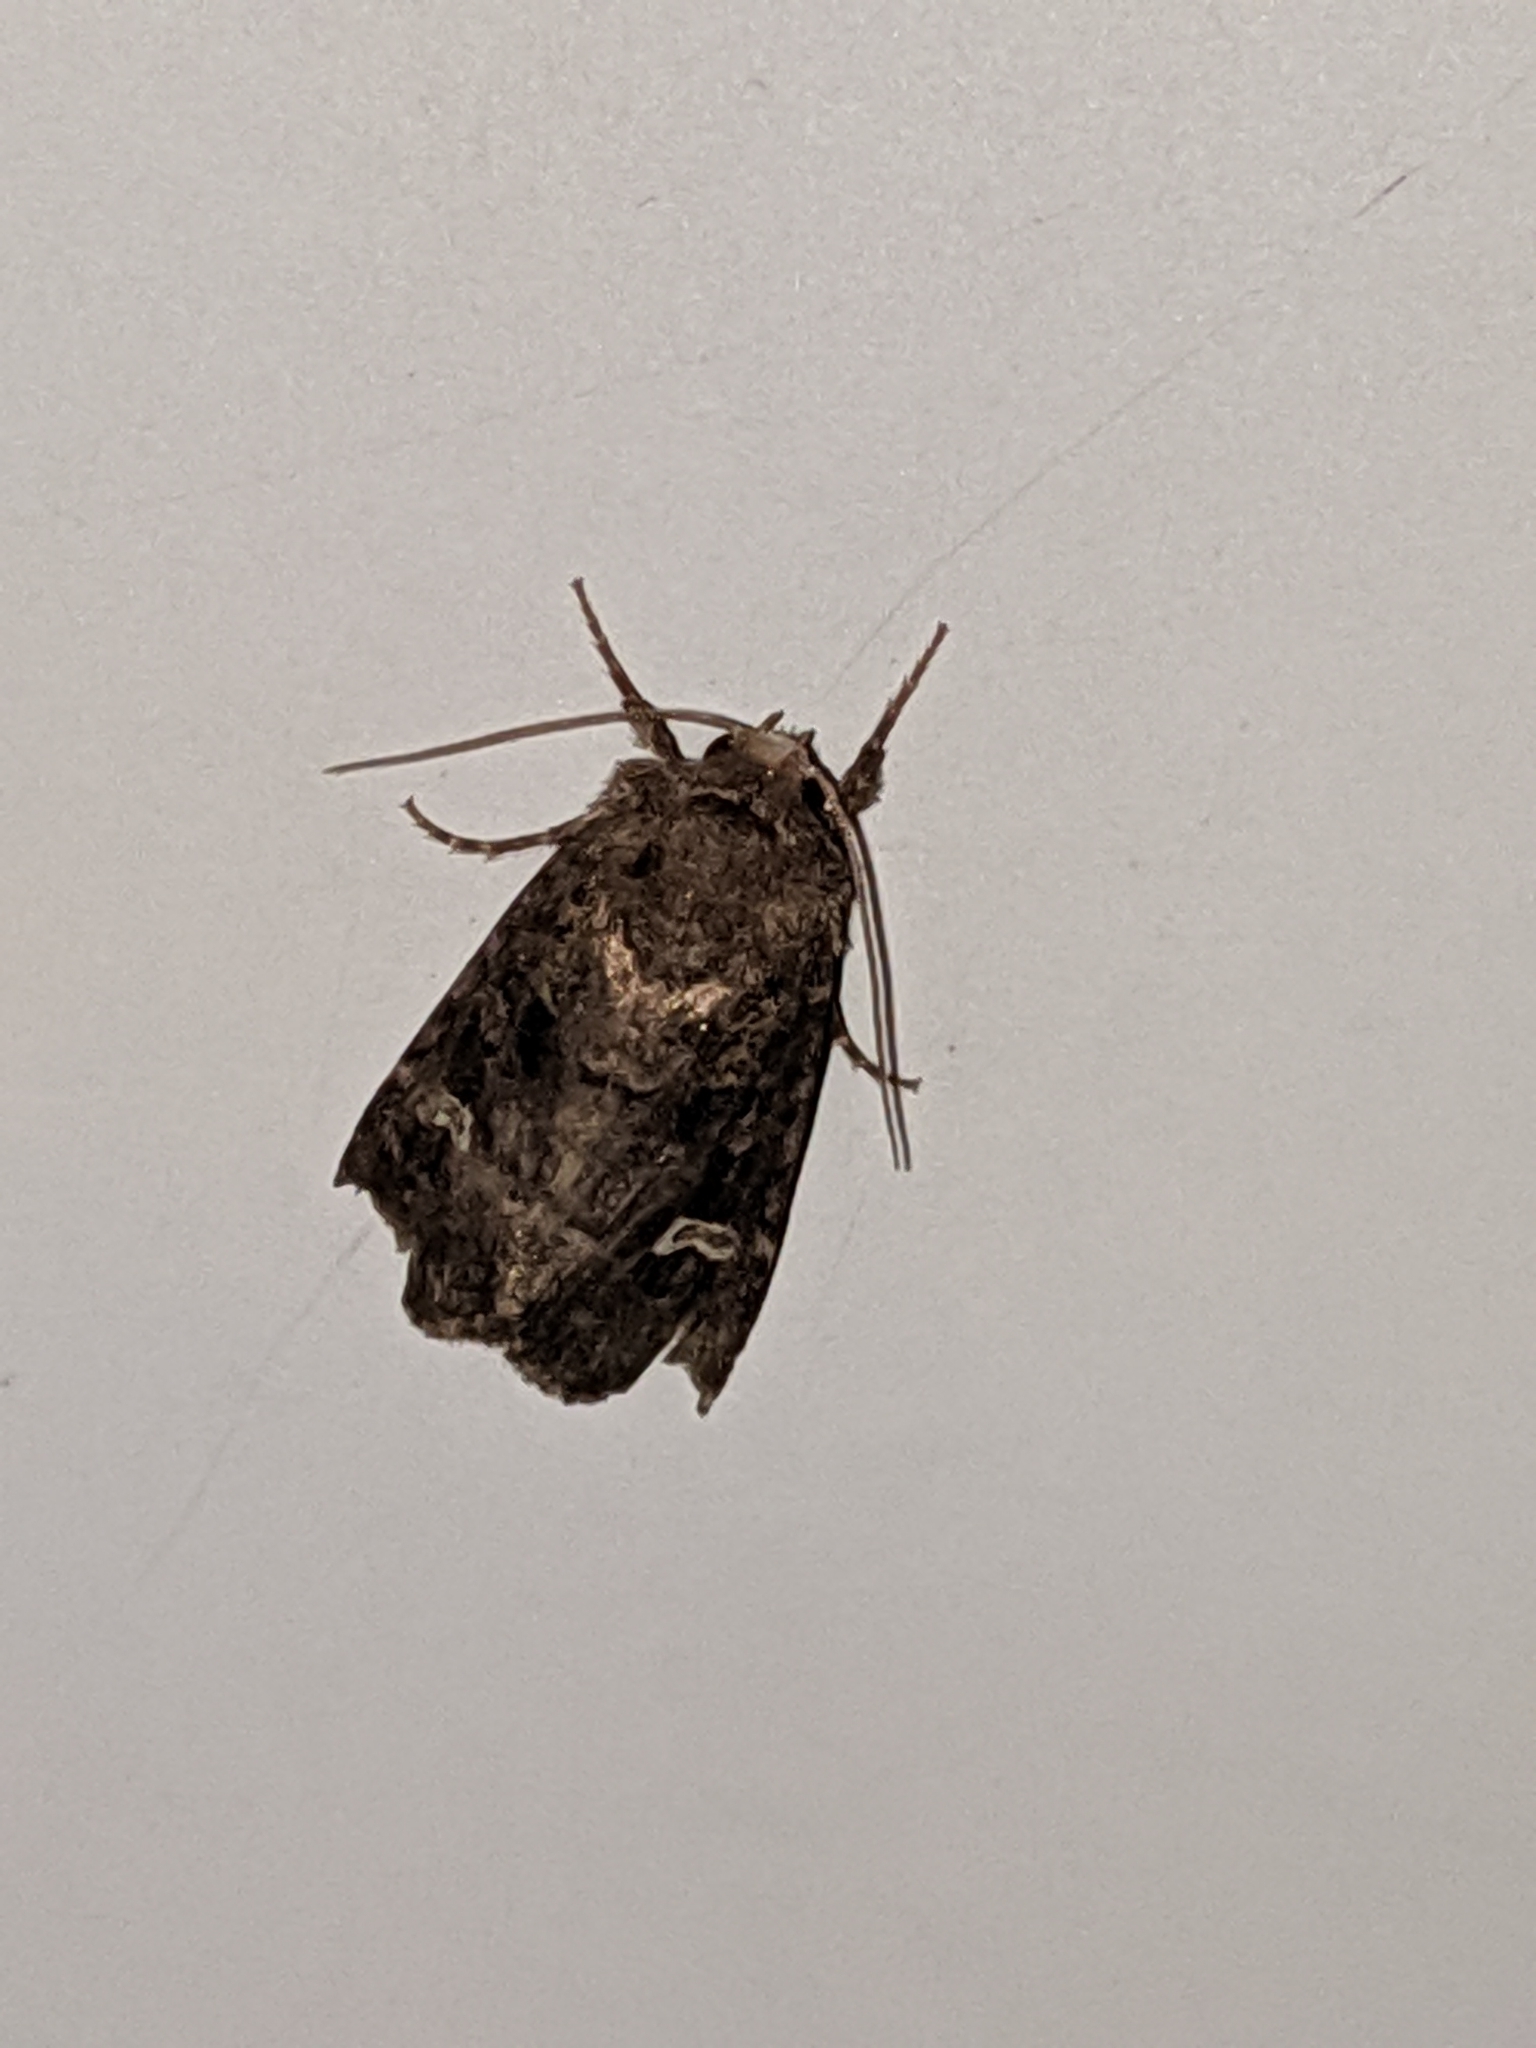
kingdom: Animalia
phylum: Arthropoda
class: Insecta
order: Lepidoptera
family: Noctuidae
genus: Lacinipolia
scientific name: Lacinipolia renigera
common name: Kidney-spotted minor
